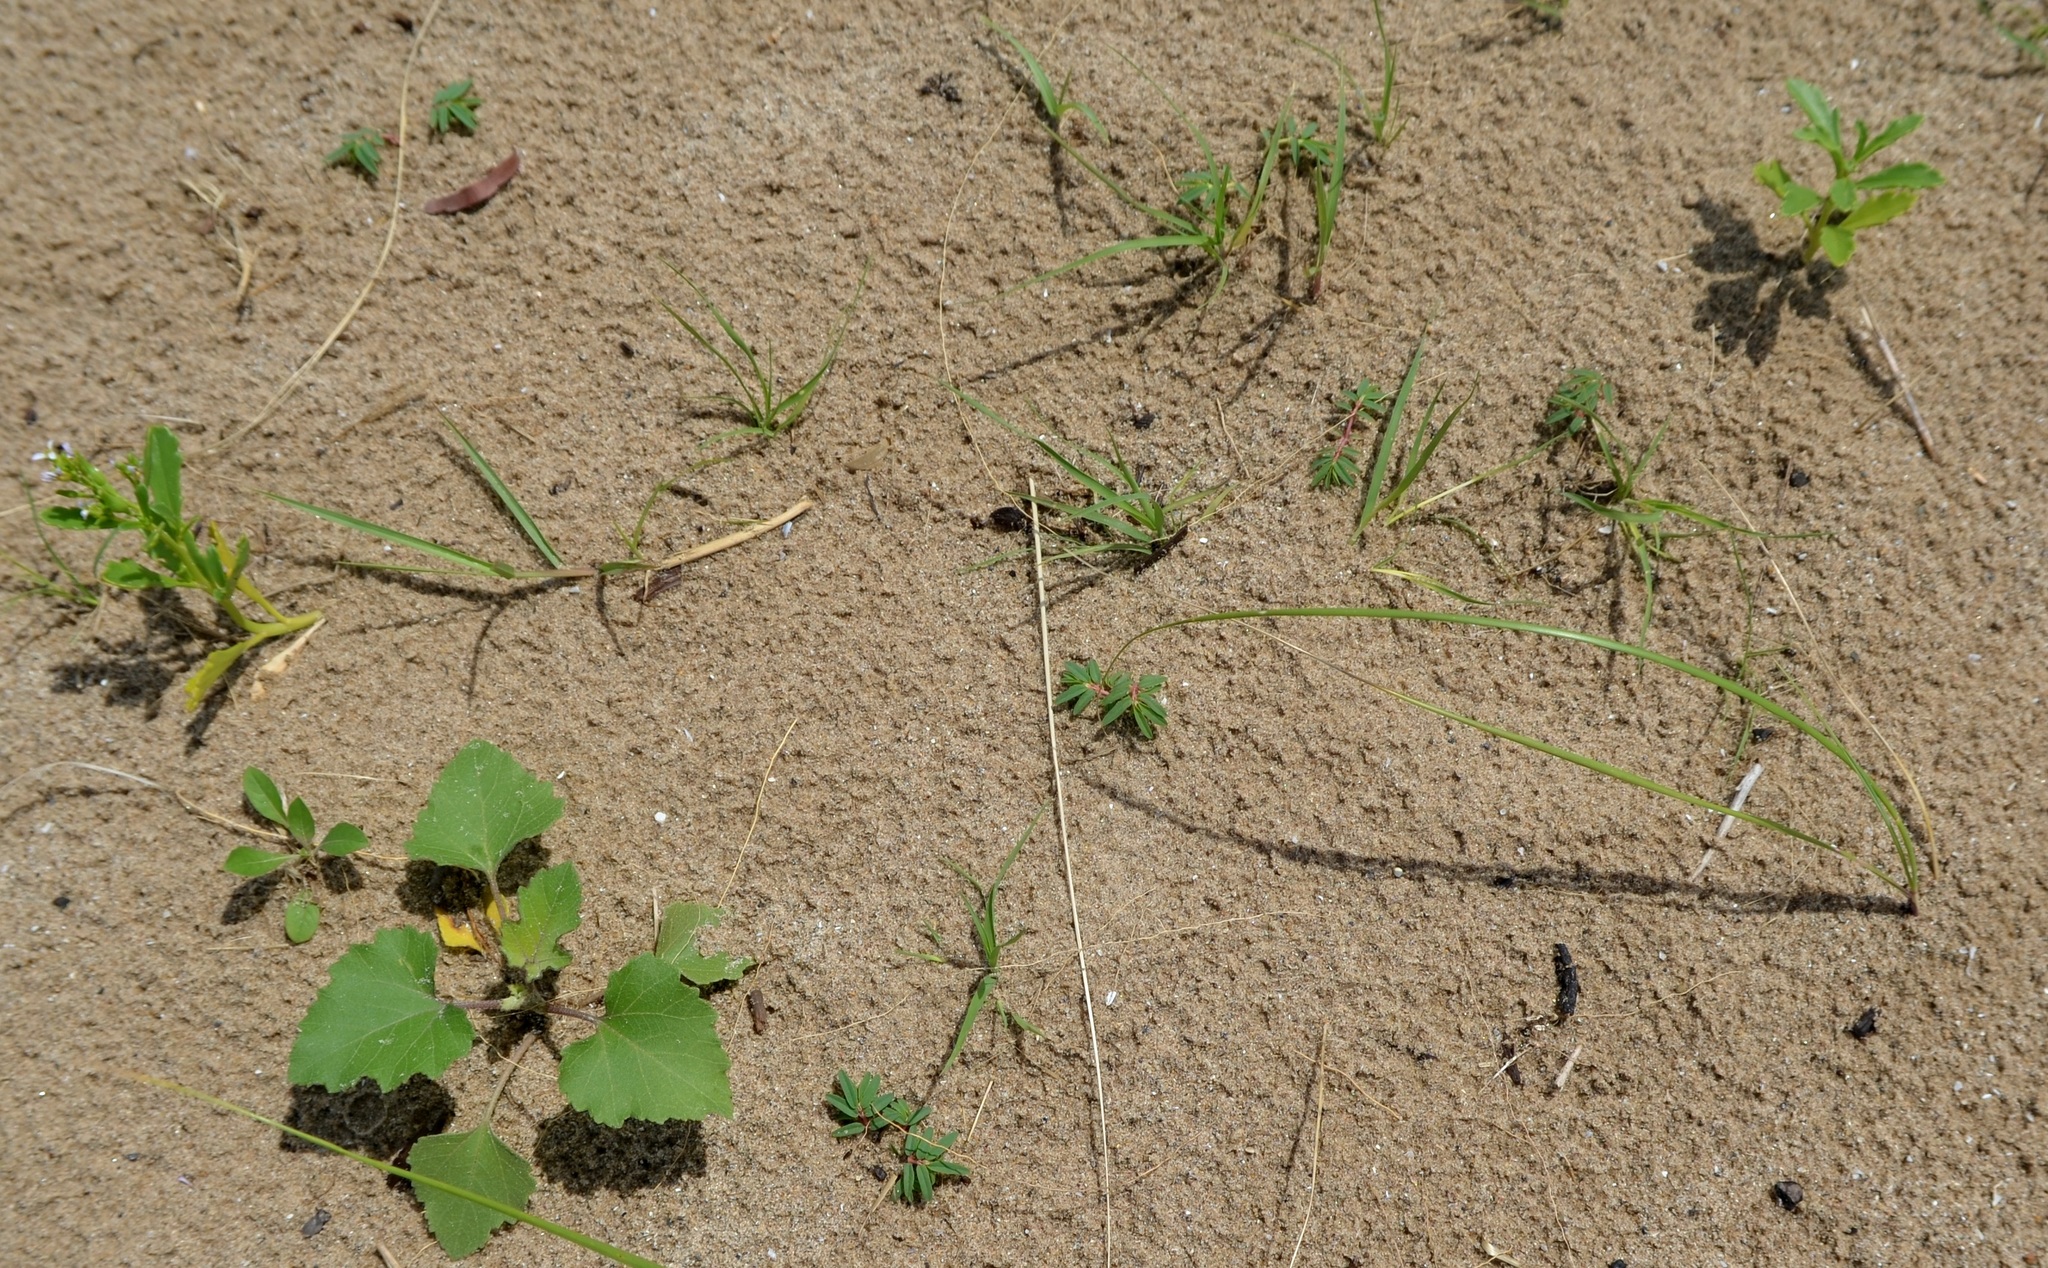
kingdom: Plantae
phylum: Tracheophyta
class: Magnoliopsida
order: Malpighiales
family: Euphorbiaceae
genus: Euphorbia
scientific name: Euphorbia polygonifolia
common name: Knotweed spurge
